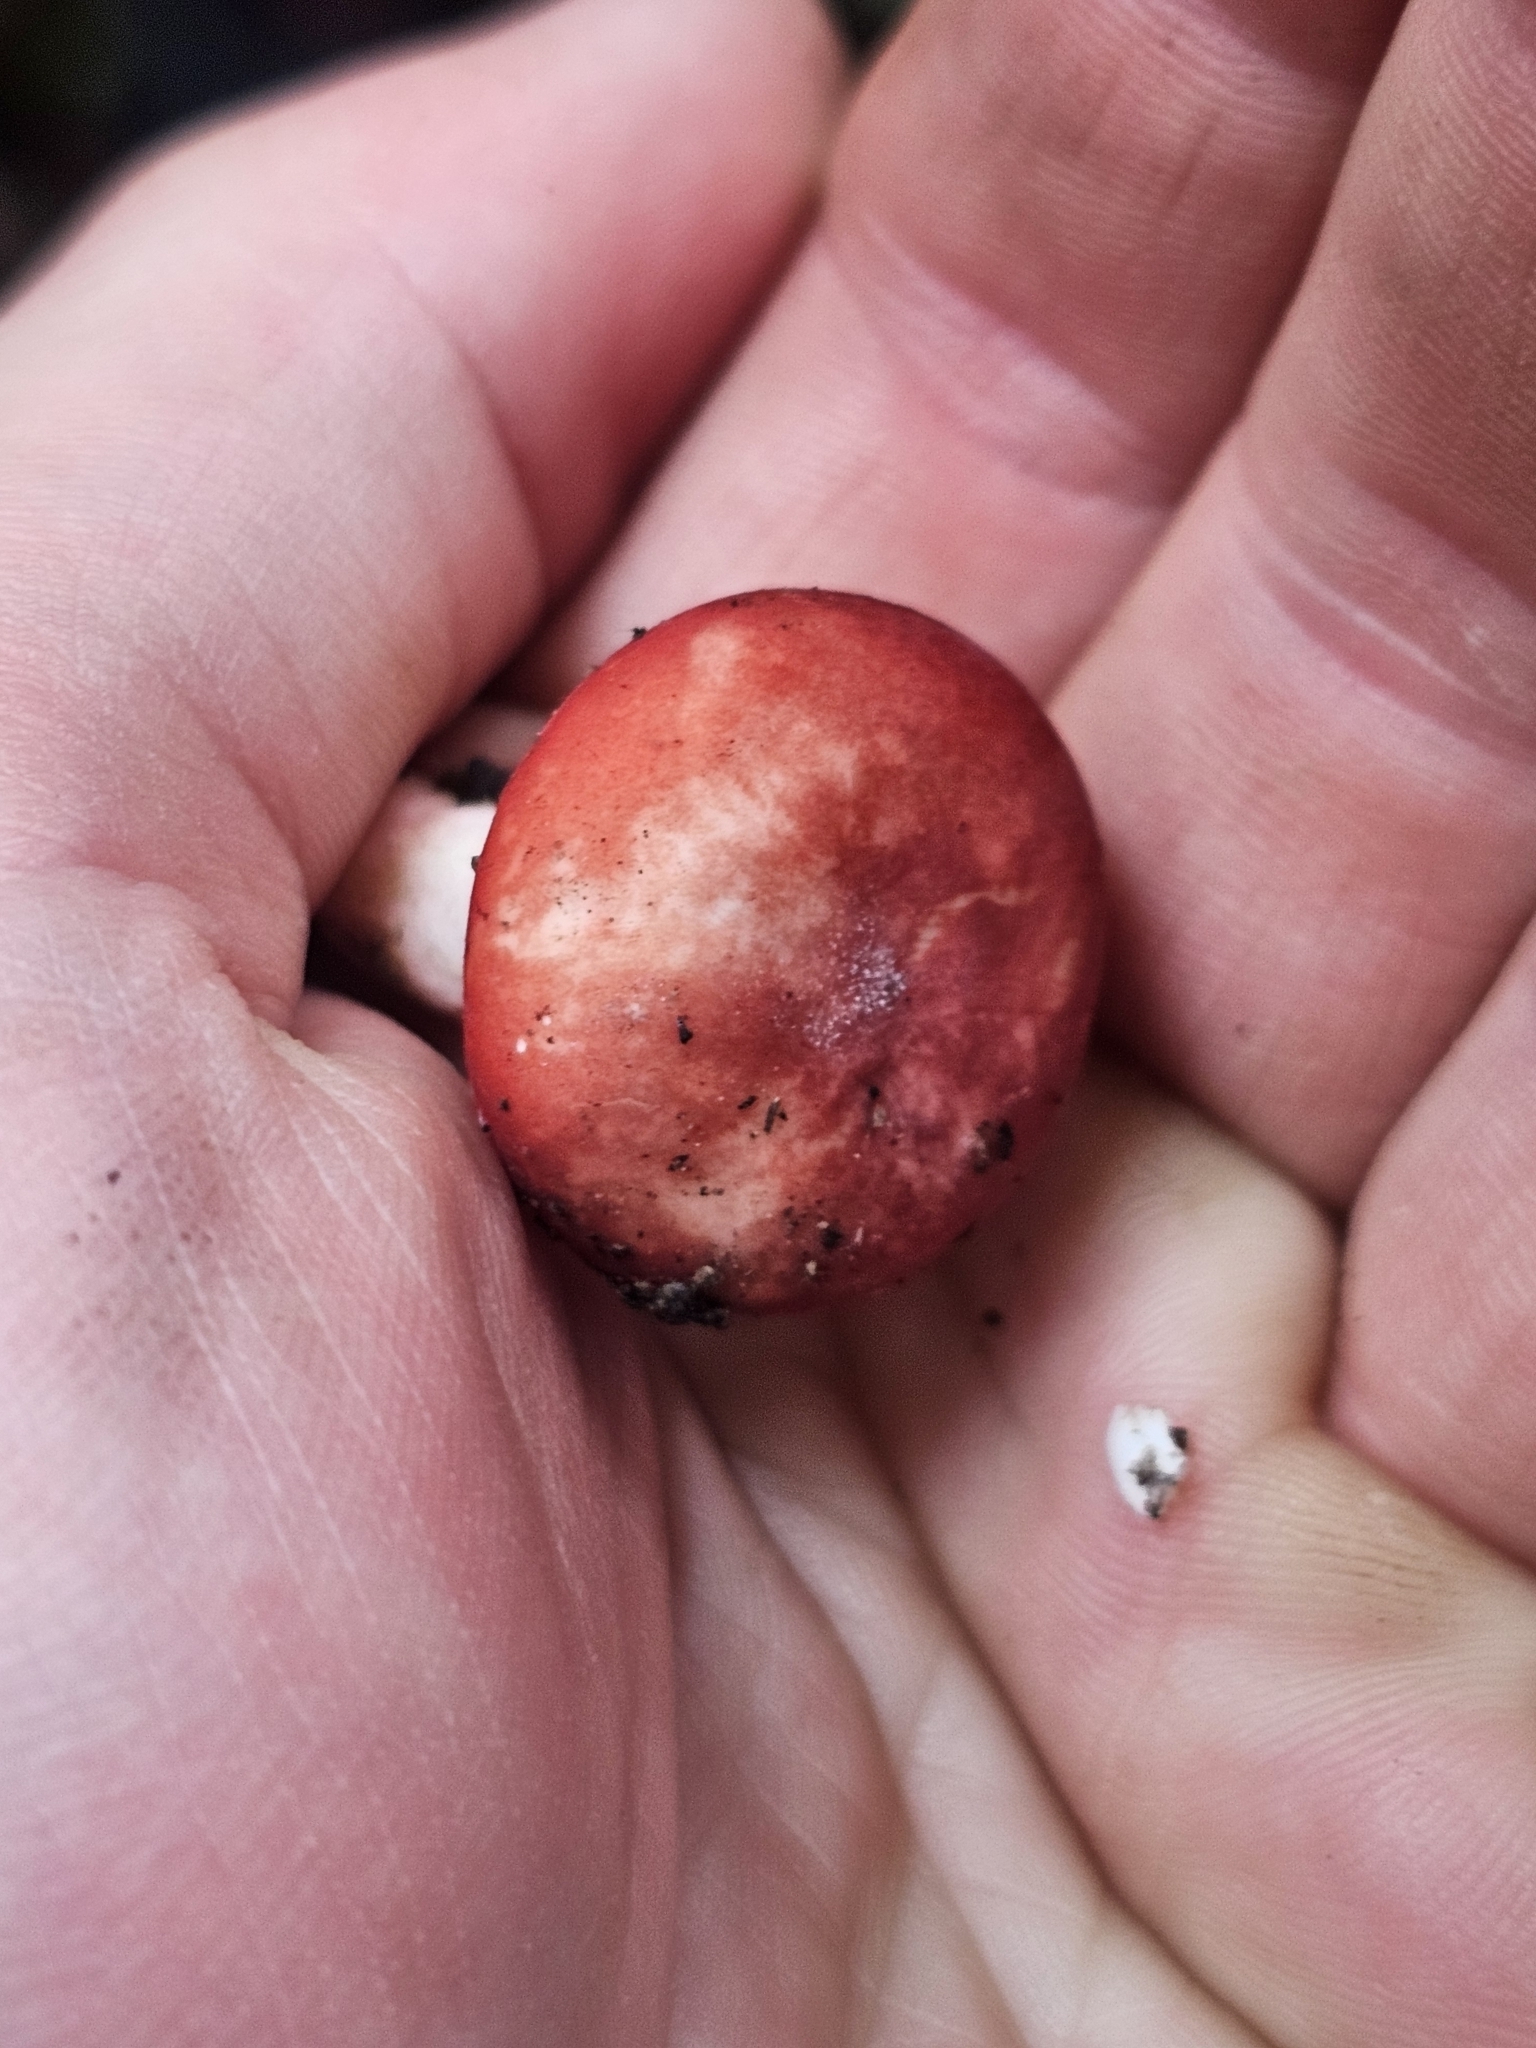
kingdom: Fungi
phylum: Basidiomycota
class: Agaricomycetes
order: Russulales
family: Russulaceae
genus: Russula
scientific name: Russula kermesina
